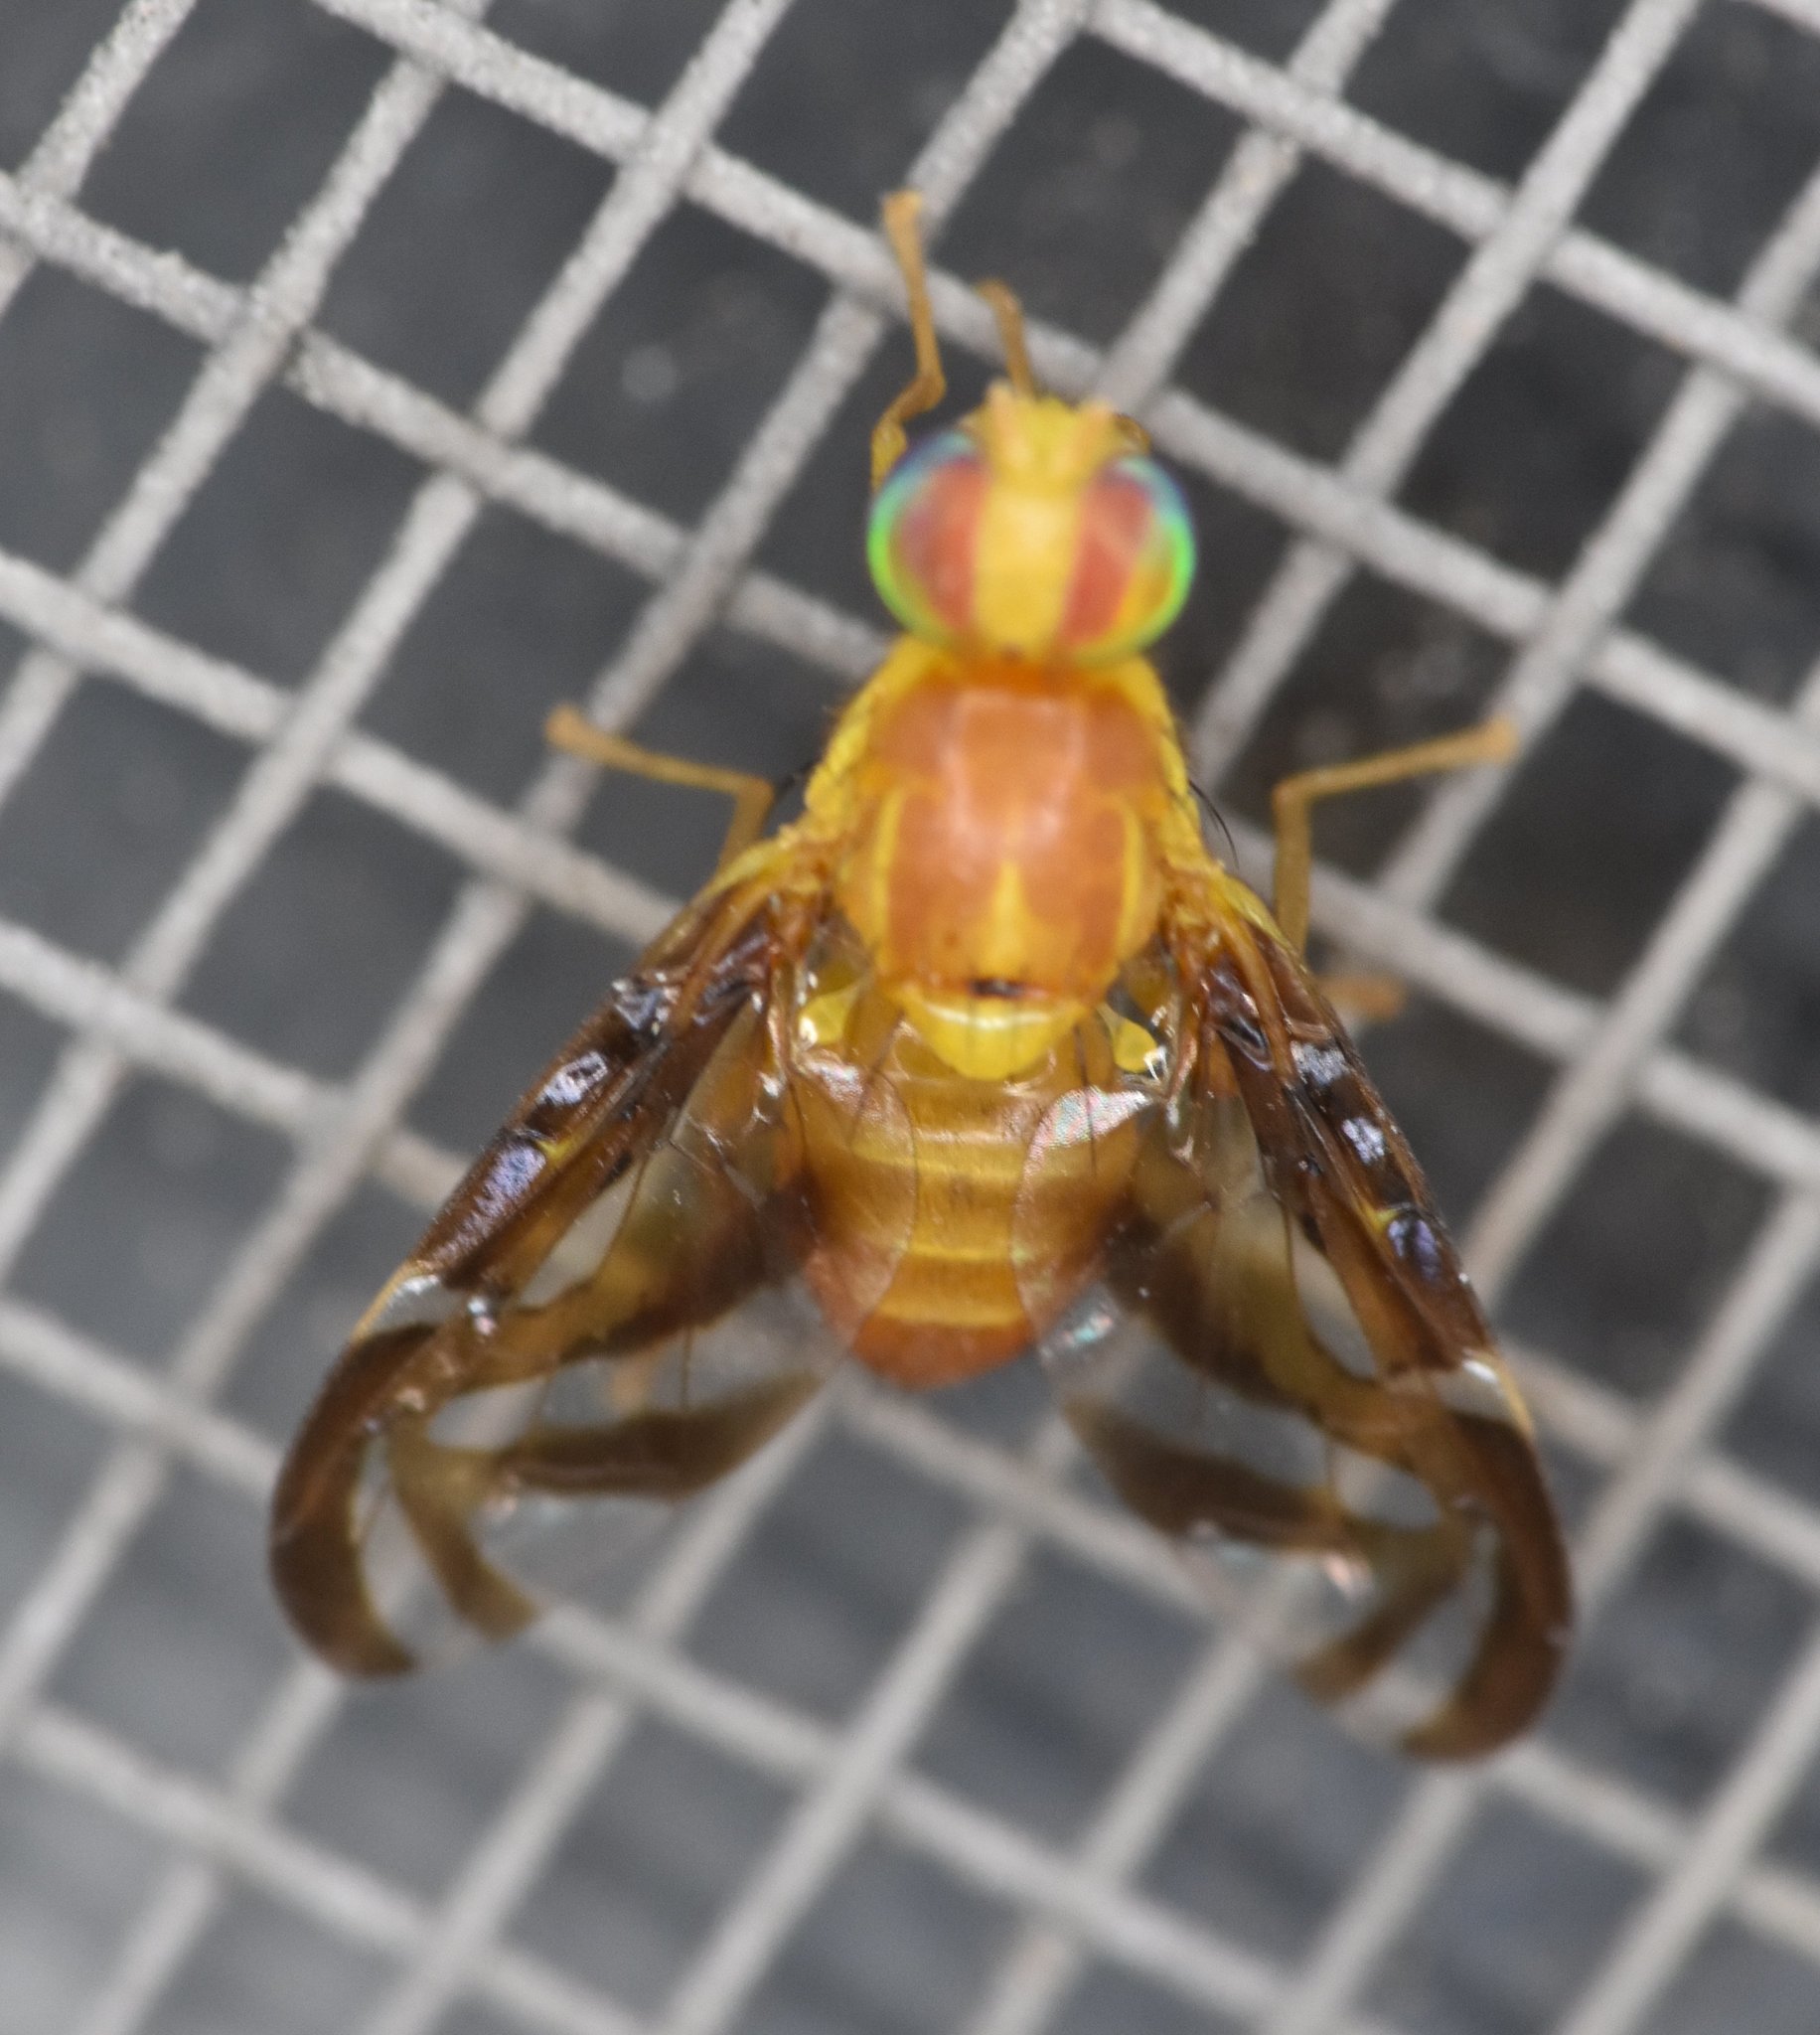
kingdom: Animalia
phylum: Arthropoda
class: Insecta
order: Diptera
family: Tephritidae
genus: Anastrepha
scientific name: Anastrepha suspensa
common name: Caribbean fruit fly
